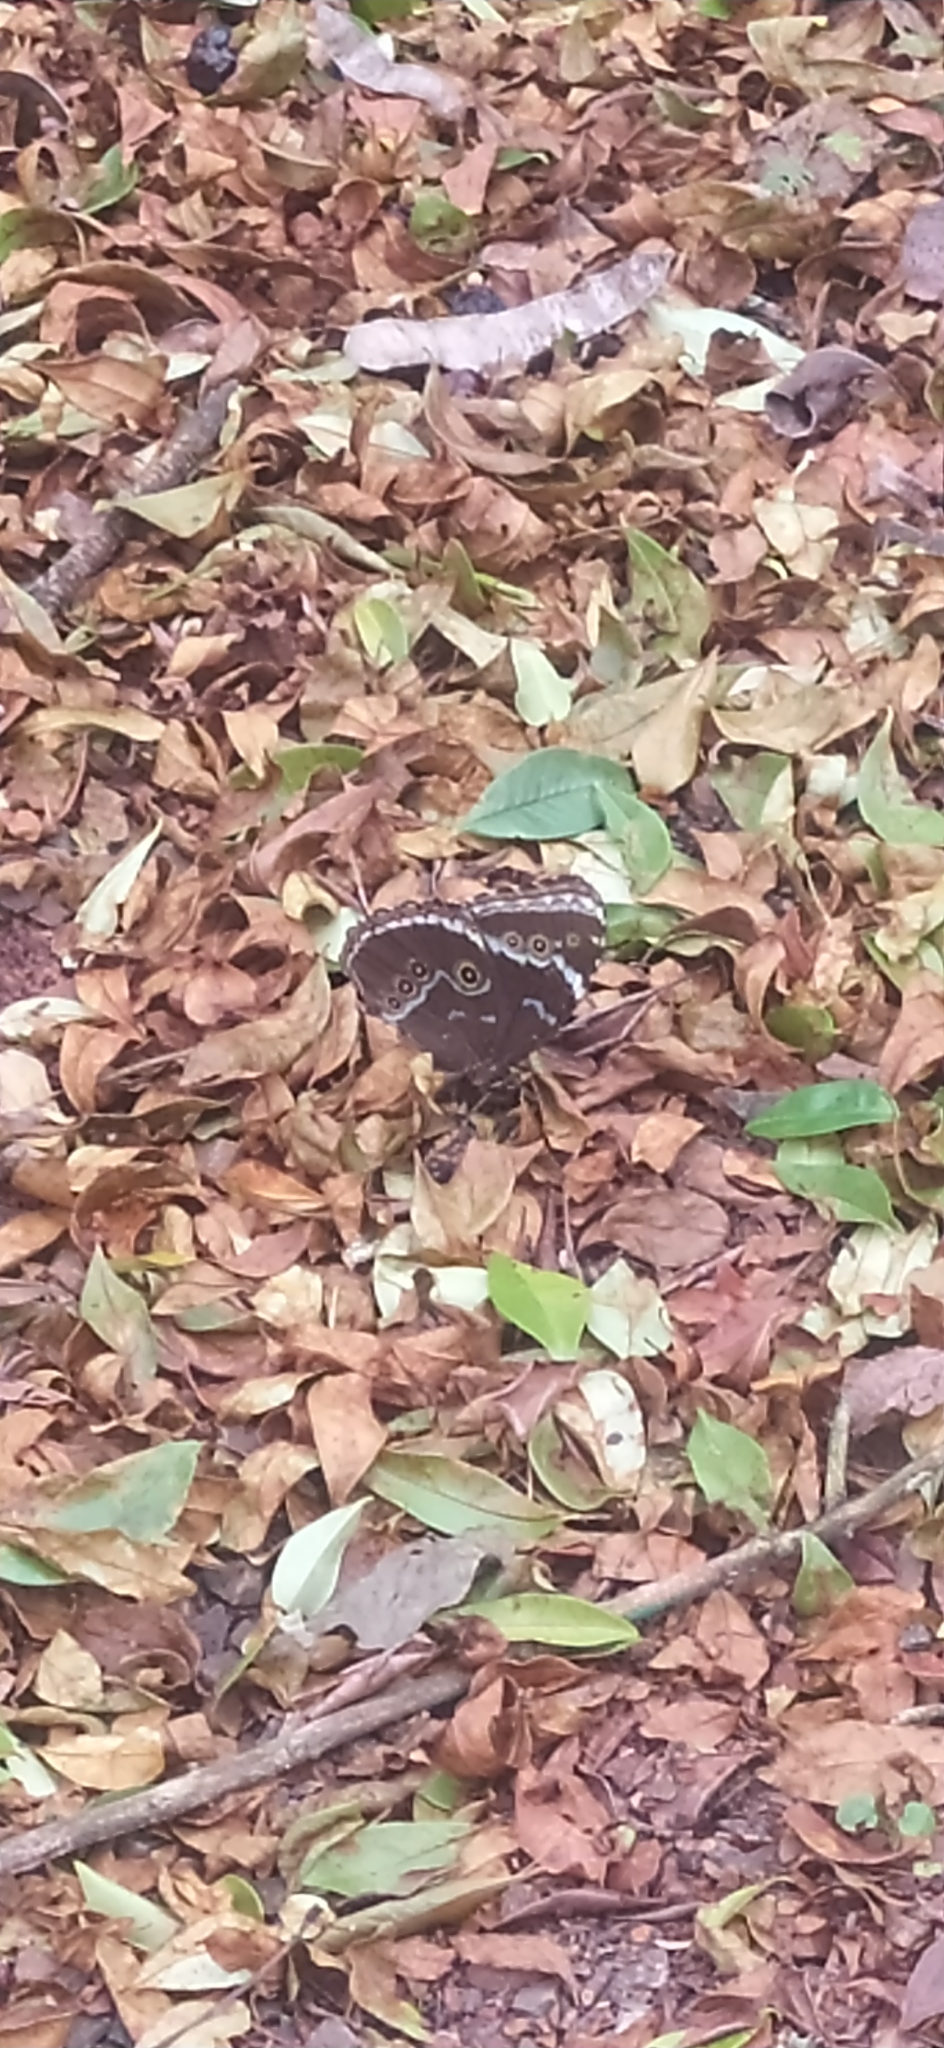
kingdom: Animalia
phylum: Arthropoda
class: Insecta
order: Lepidoptera
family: Nymphalidae
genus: Morpho
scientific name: Morpho achilles
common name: Achilles morpho
